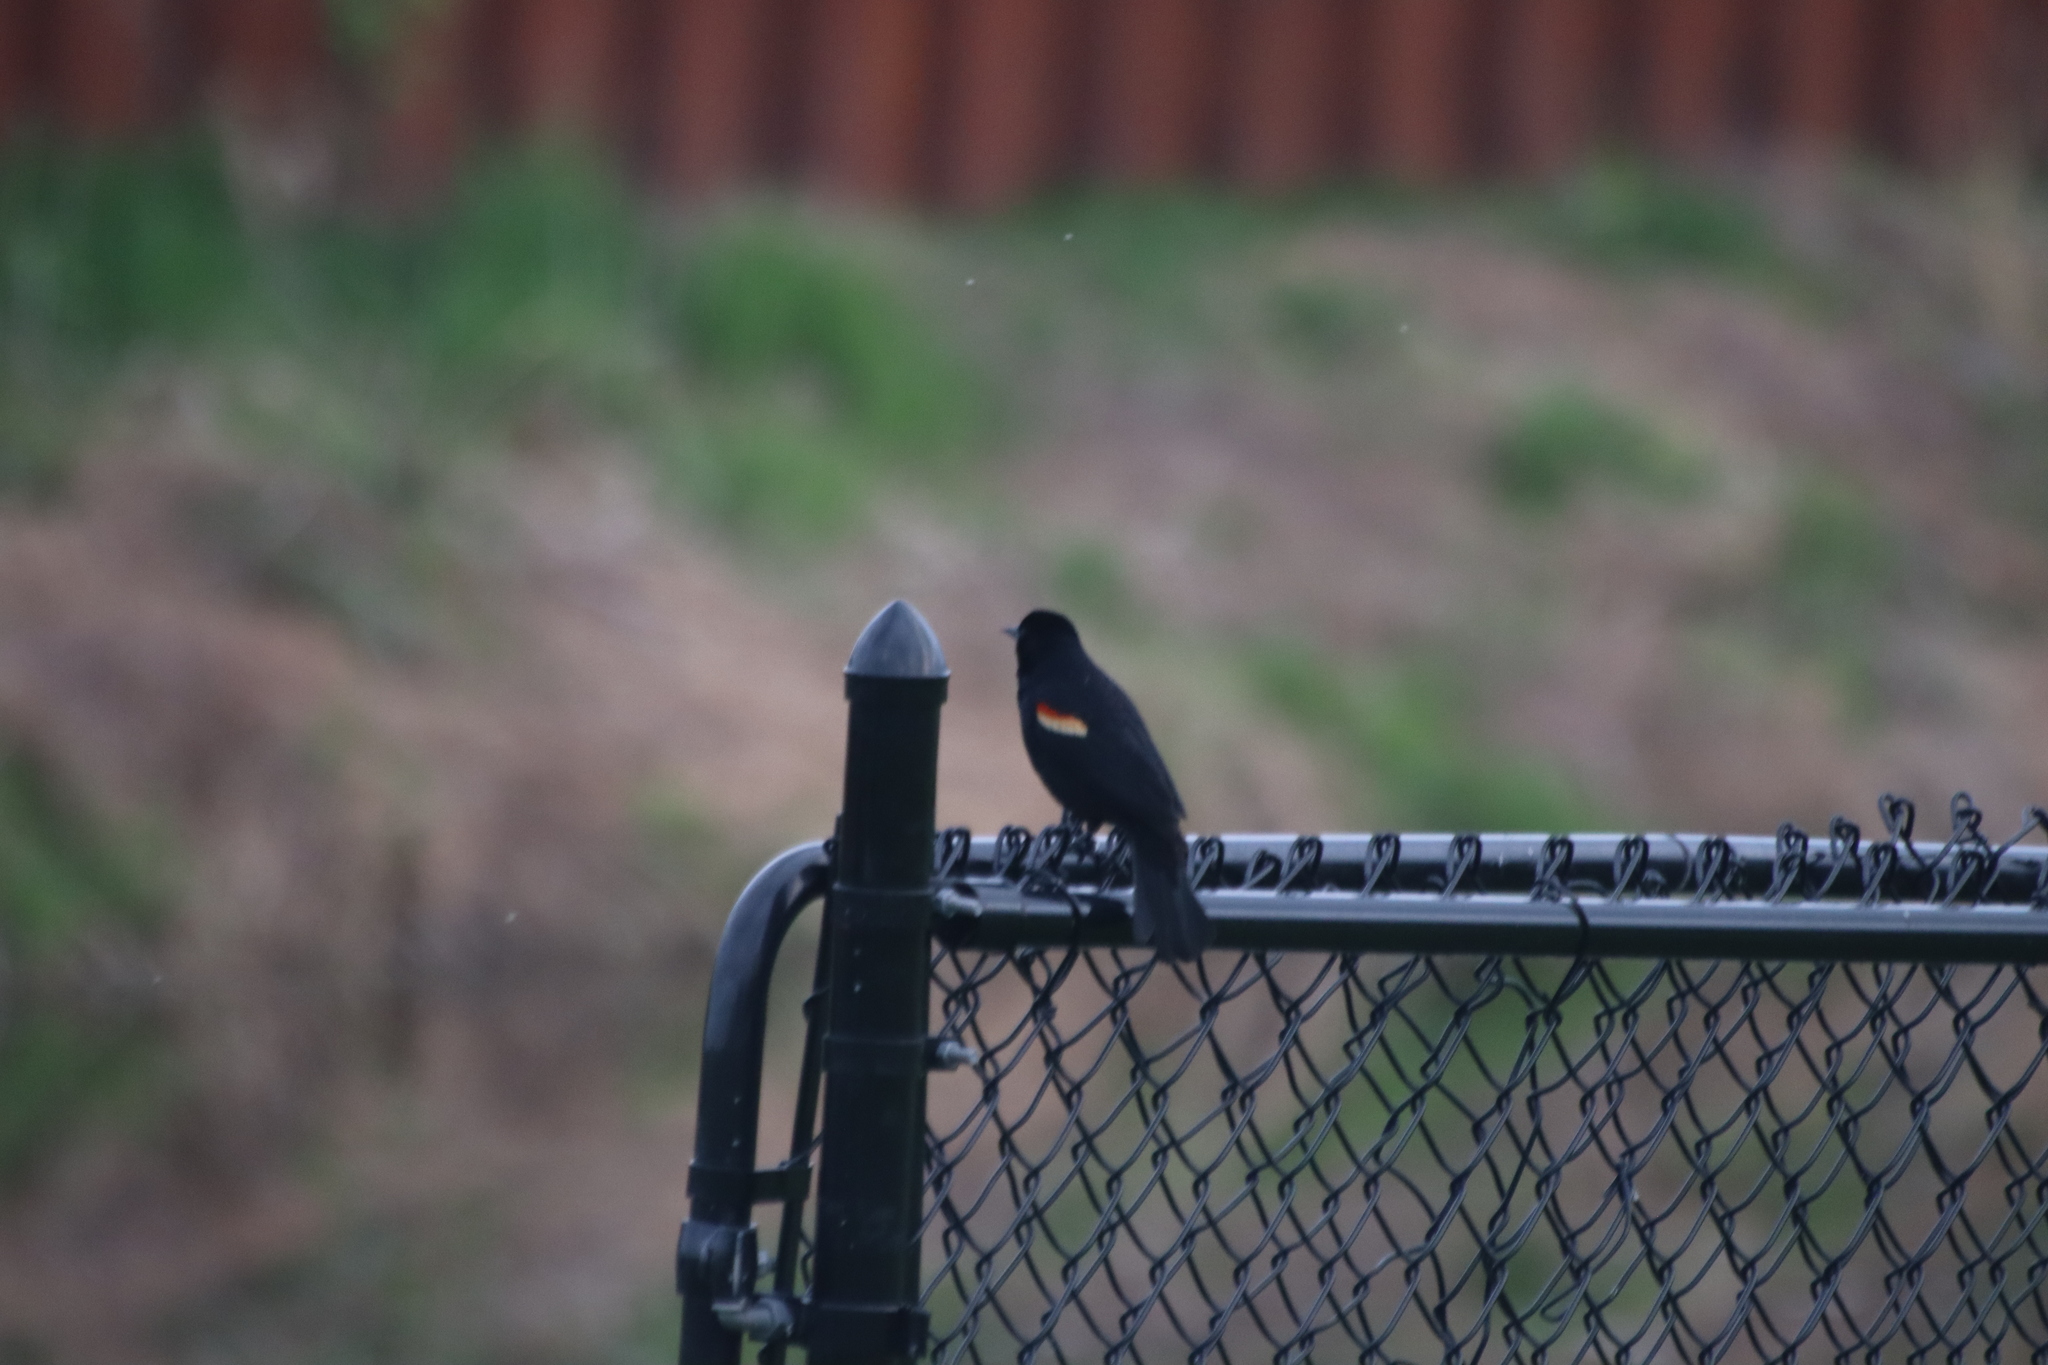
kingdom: Animalia
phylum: Chordata
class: Aves
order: Passeriformes
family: Icteridae
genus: Agelaius
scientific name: Agelaius phoeniceus
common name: Red-winged blackbird
